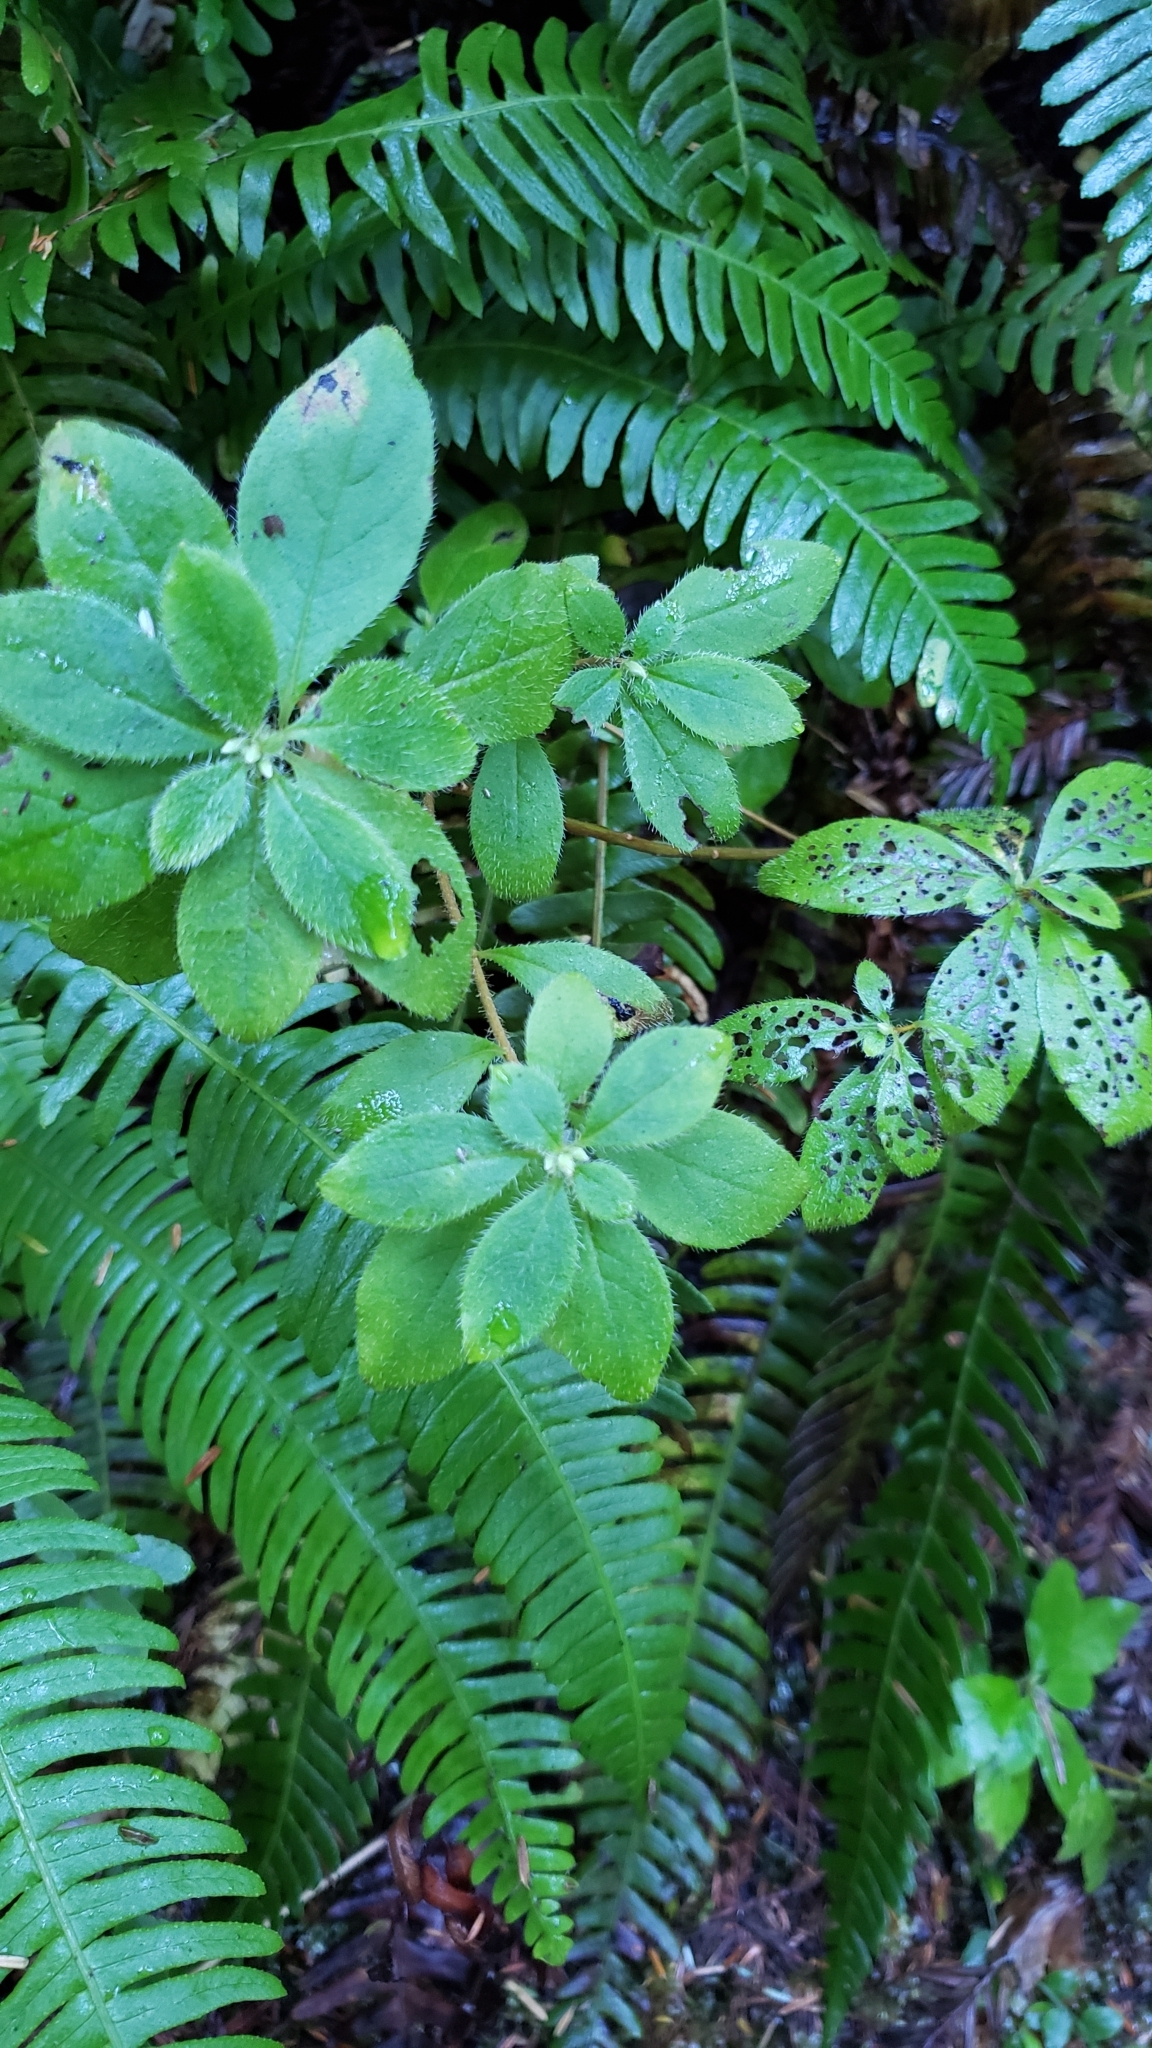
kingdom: Plantae
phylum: Tracheophyta
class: Magnoliopsida
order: Ericales
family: Ericaceae
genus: Rhododendron
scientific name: Rhododendron menziesii
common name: Pacific menziesia
